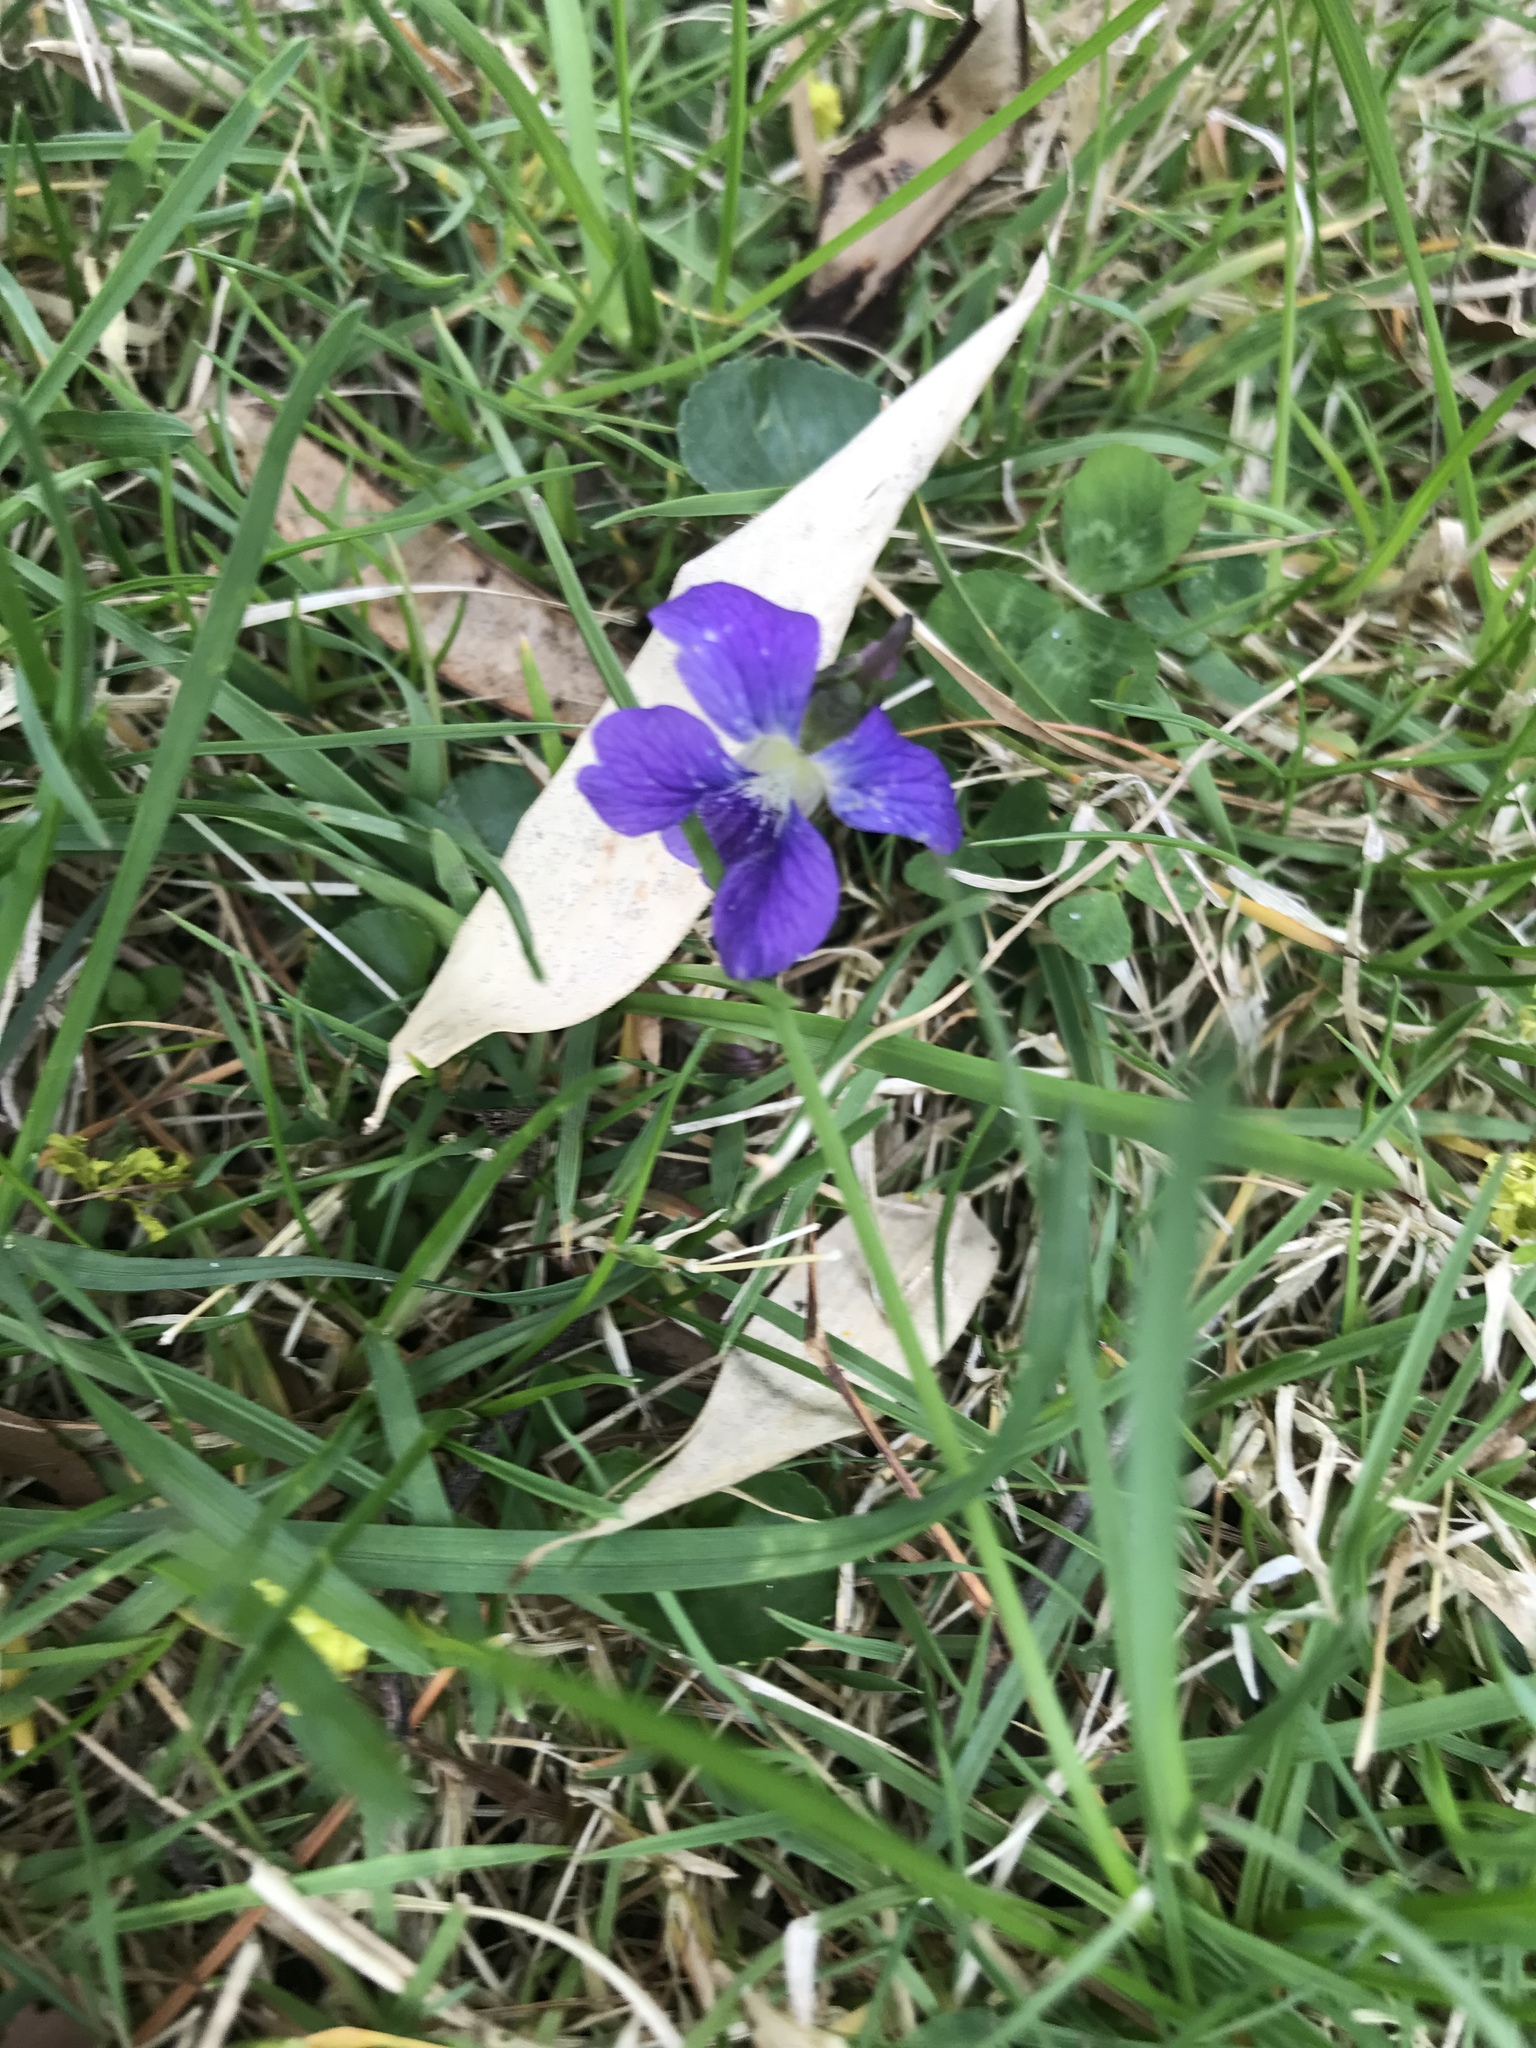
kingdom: Plantae
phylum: Tracheophyta
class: Magnoliopsida
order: Malpighiales
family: Violaceae
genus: Viola
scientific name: Viola sororia
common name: Dooryard violet
